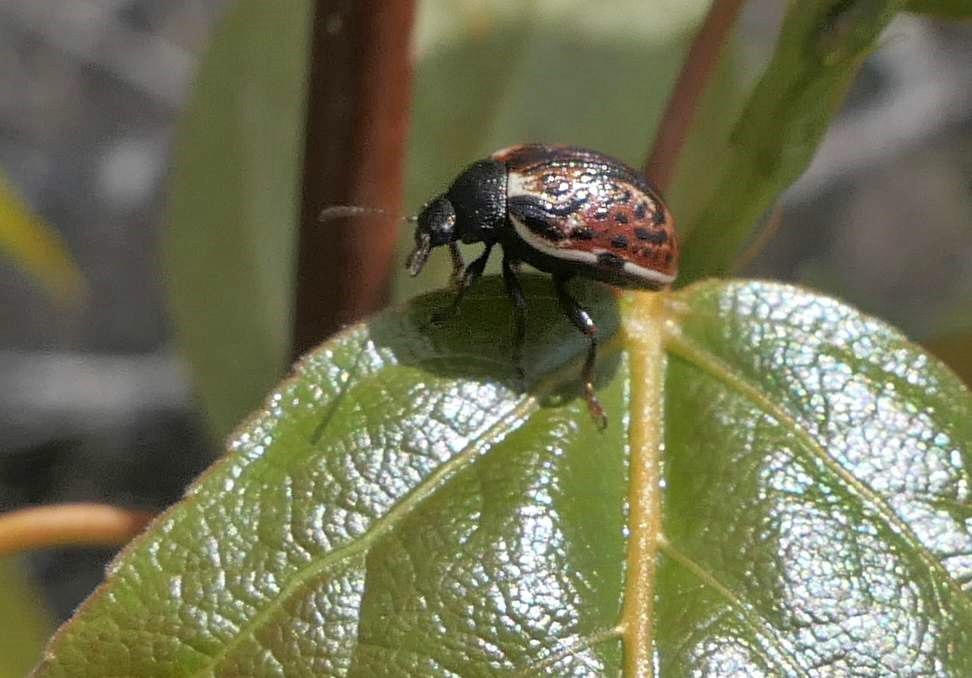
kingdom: Animalia
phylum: Arthropoda
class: Insecta
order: Coleoptera
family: Chrysomelidae
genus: Calligrapha
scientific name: Calligrapha alni
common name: Russet alder leaf beetle
